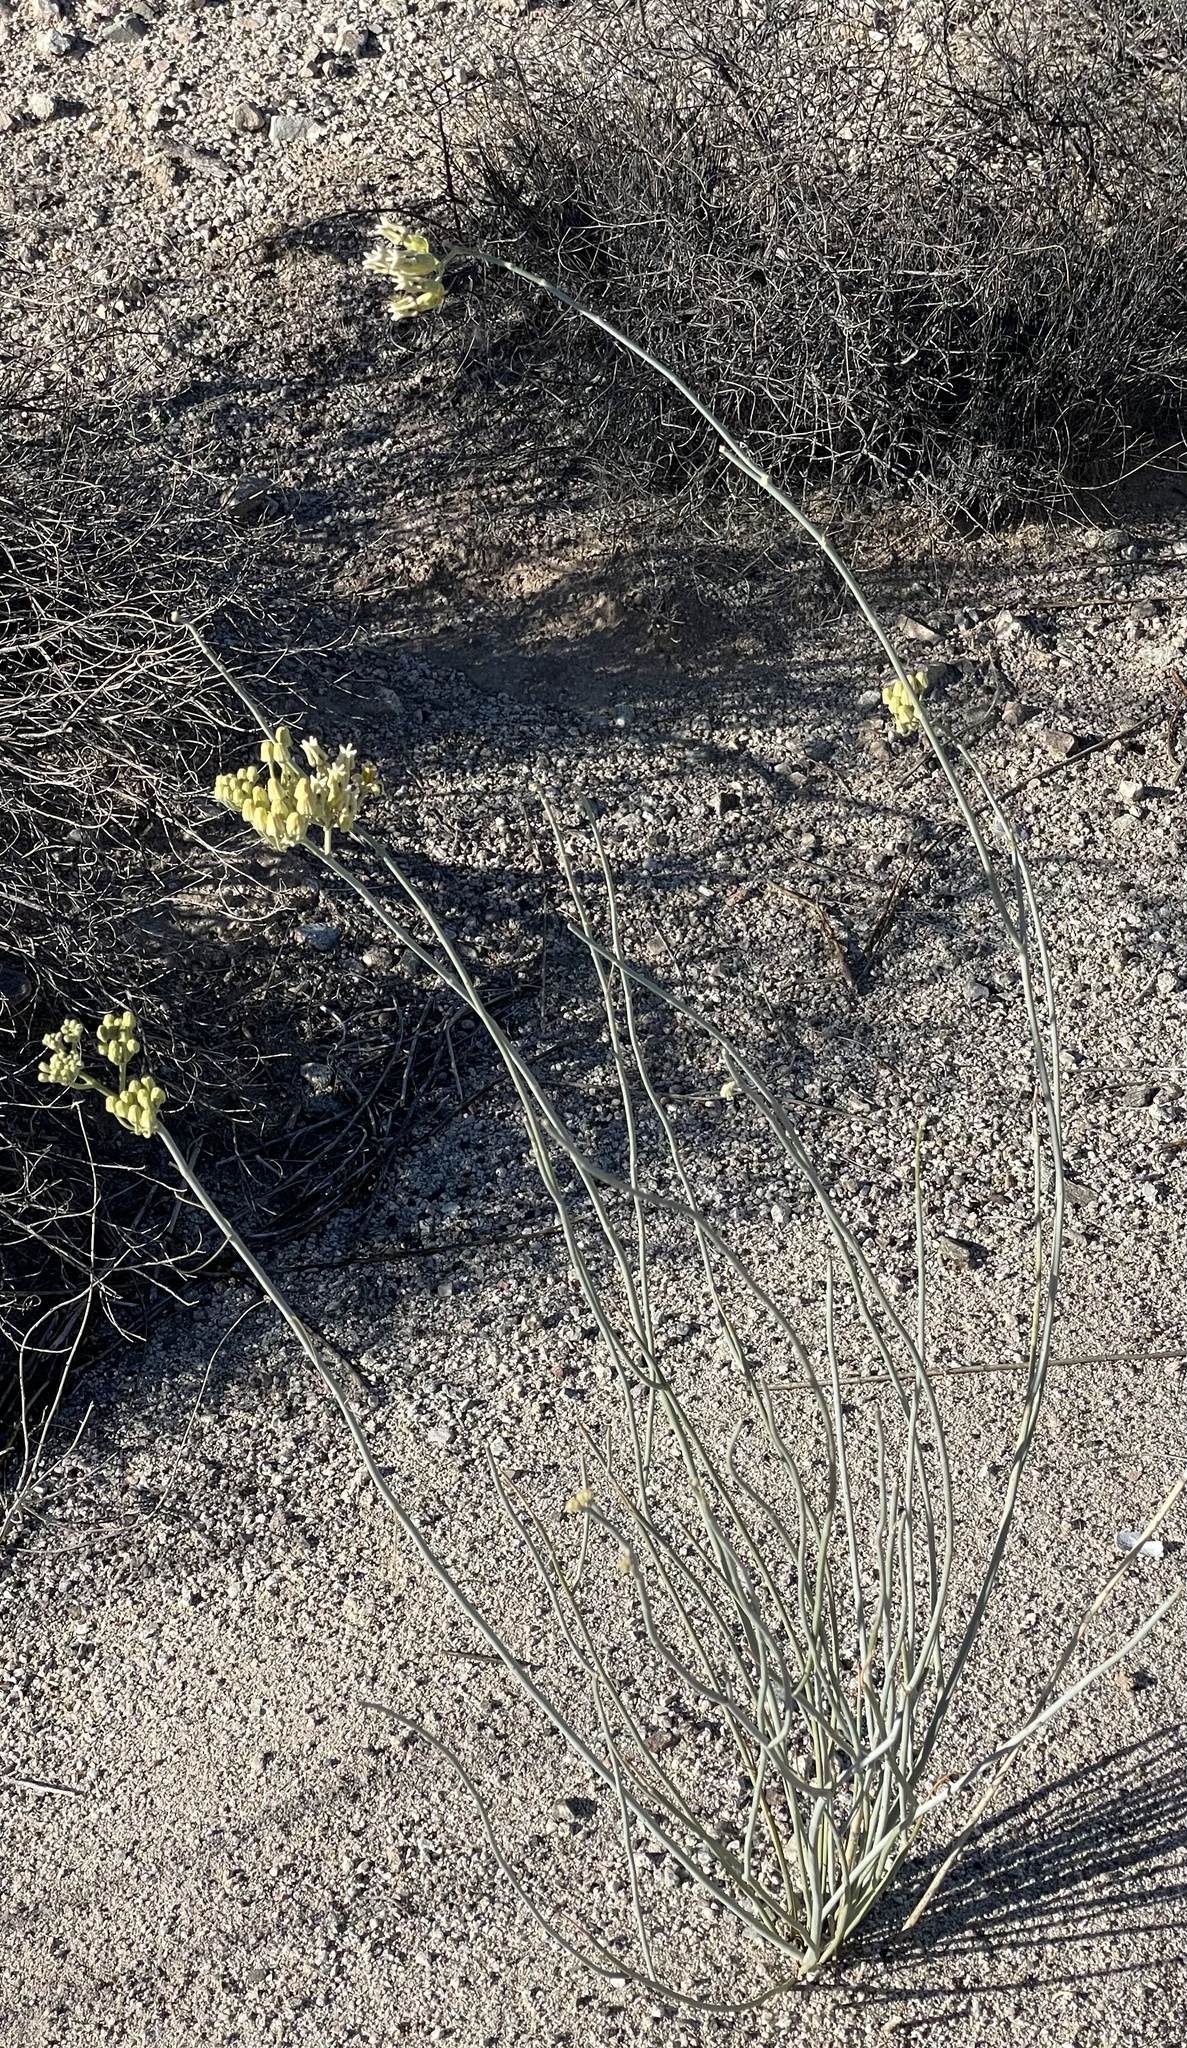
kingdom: Plantae
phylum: Tracheophyta
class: Magnoliopsida
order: Gentianales
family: Apocynaceae
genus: Asclepias
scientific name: Asclepias subulata
